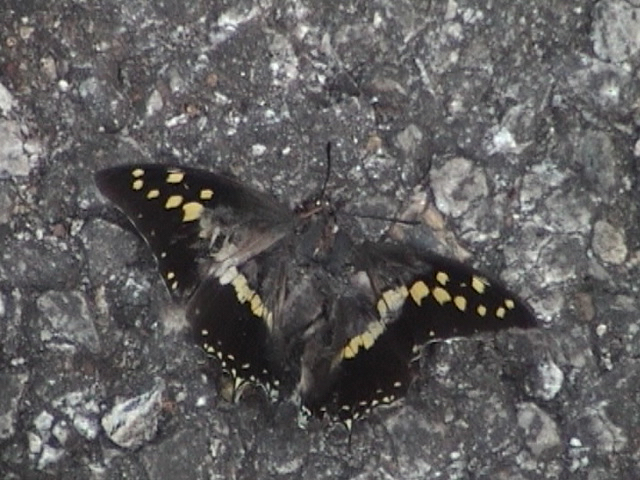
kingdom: Animalia
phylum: Arthropoda
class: Insecta
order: Lepidoptera
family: Nymphalidae
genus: Charaxes
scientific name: Charaxes solon
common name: Black rajah
